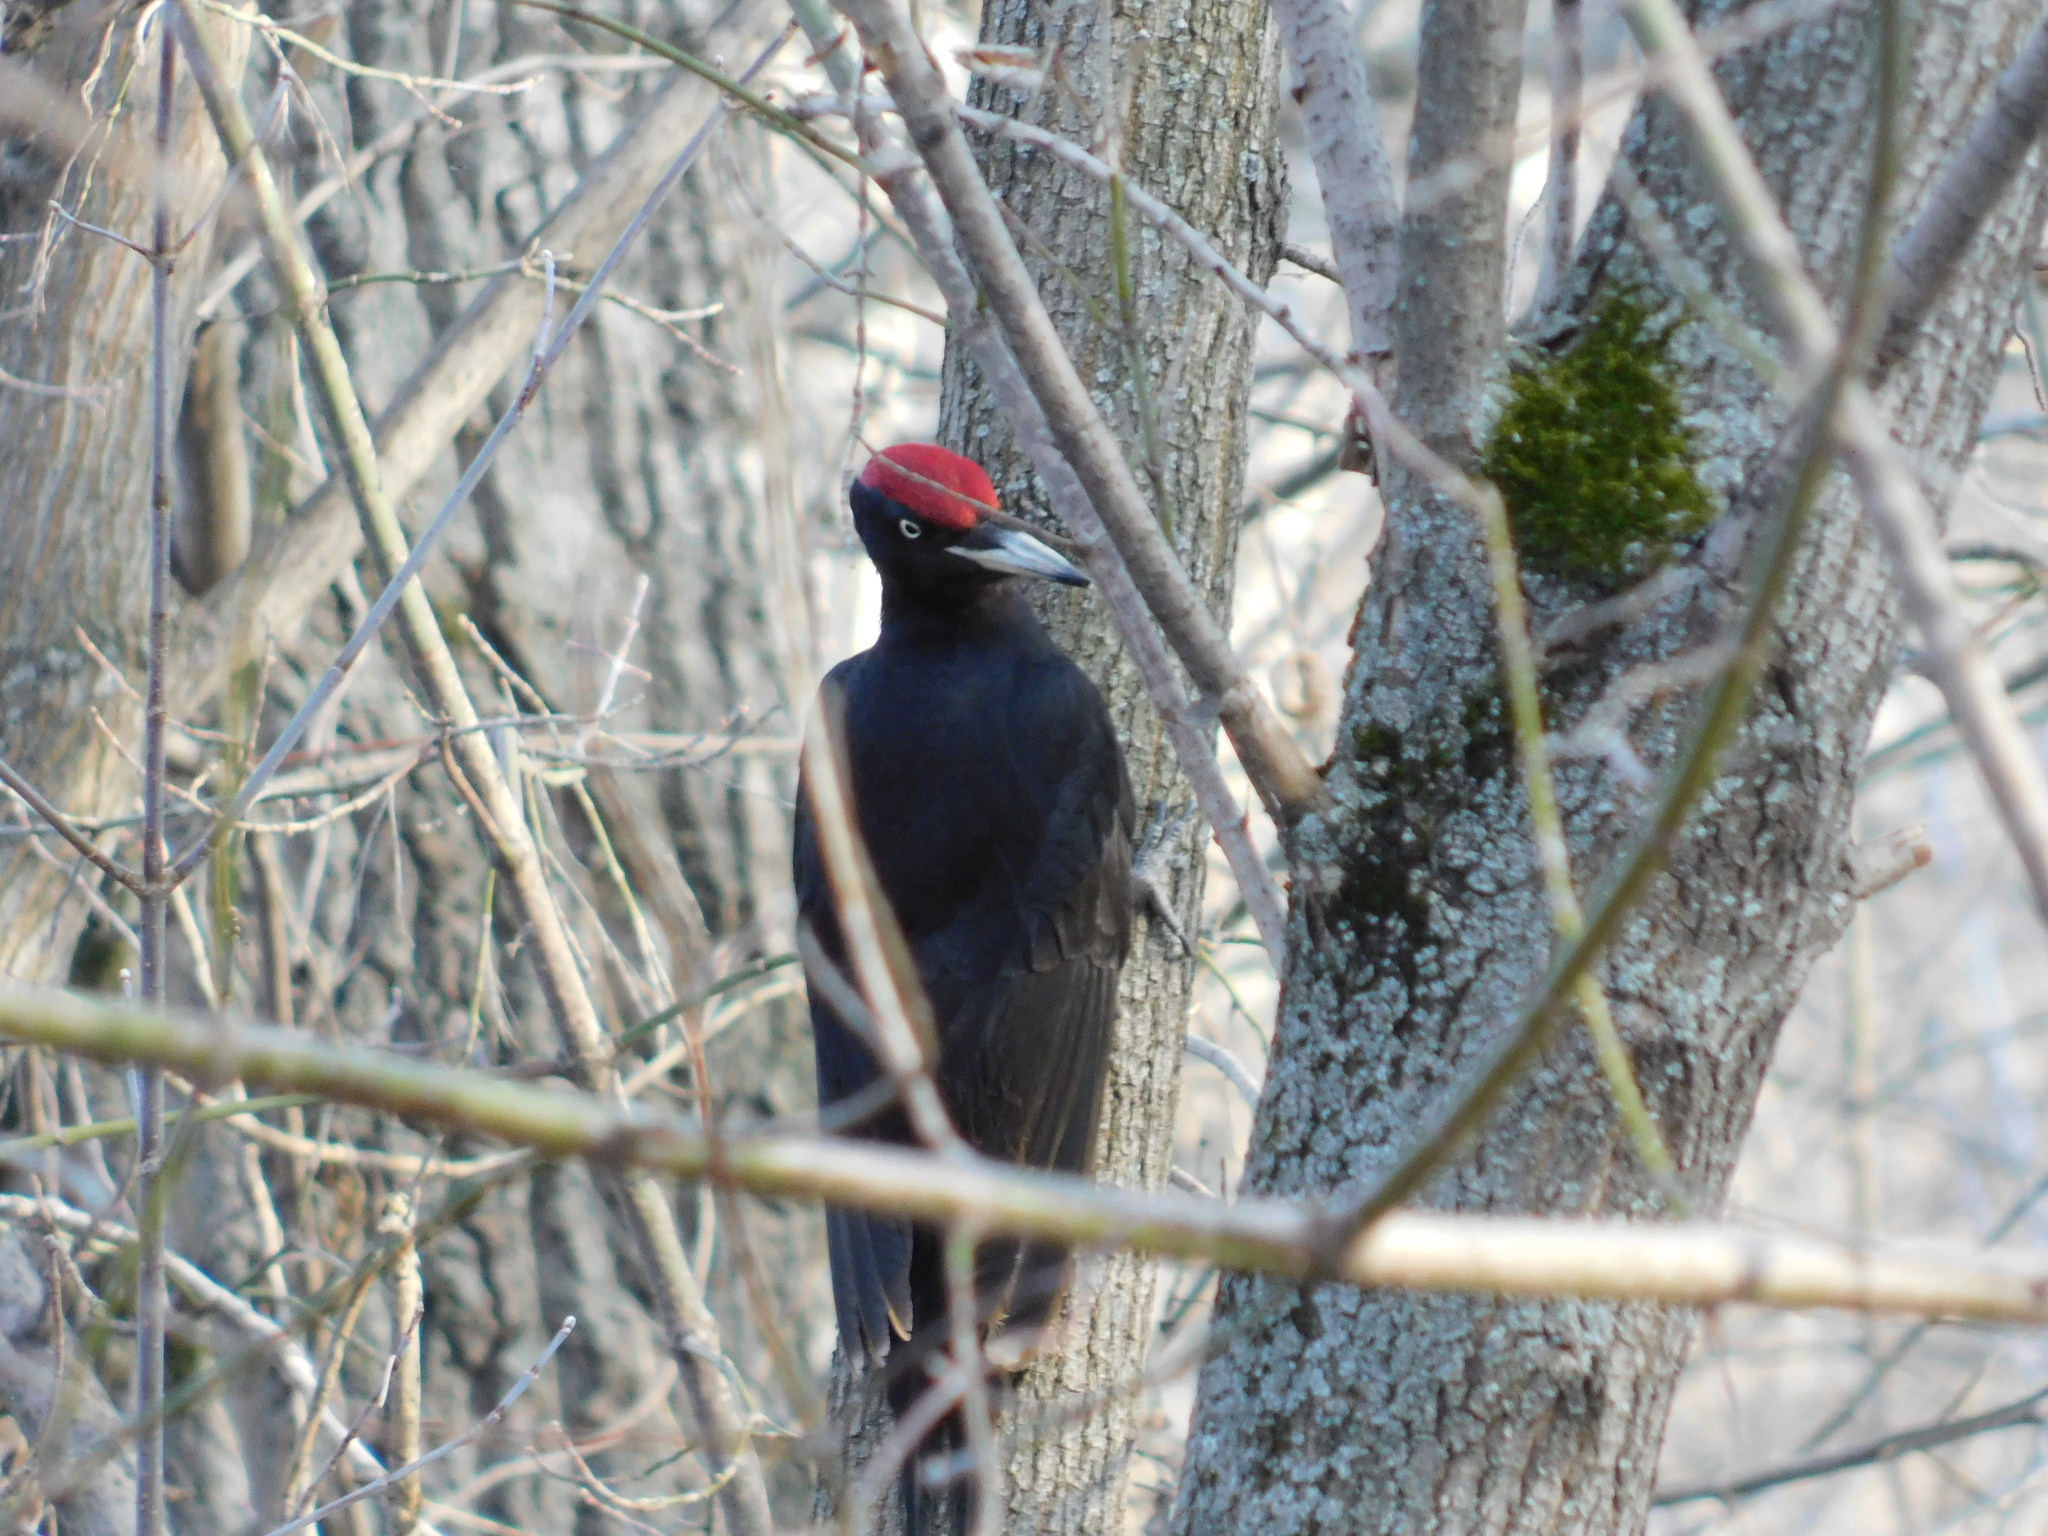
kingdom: Animalia
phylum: Chordata
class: Aves
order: Piciformes
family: Picidae
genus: Dryocopus
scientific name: Dryocopus martius
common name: Black woodpecker
